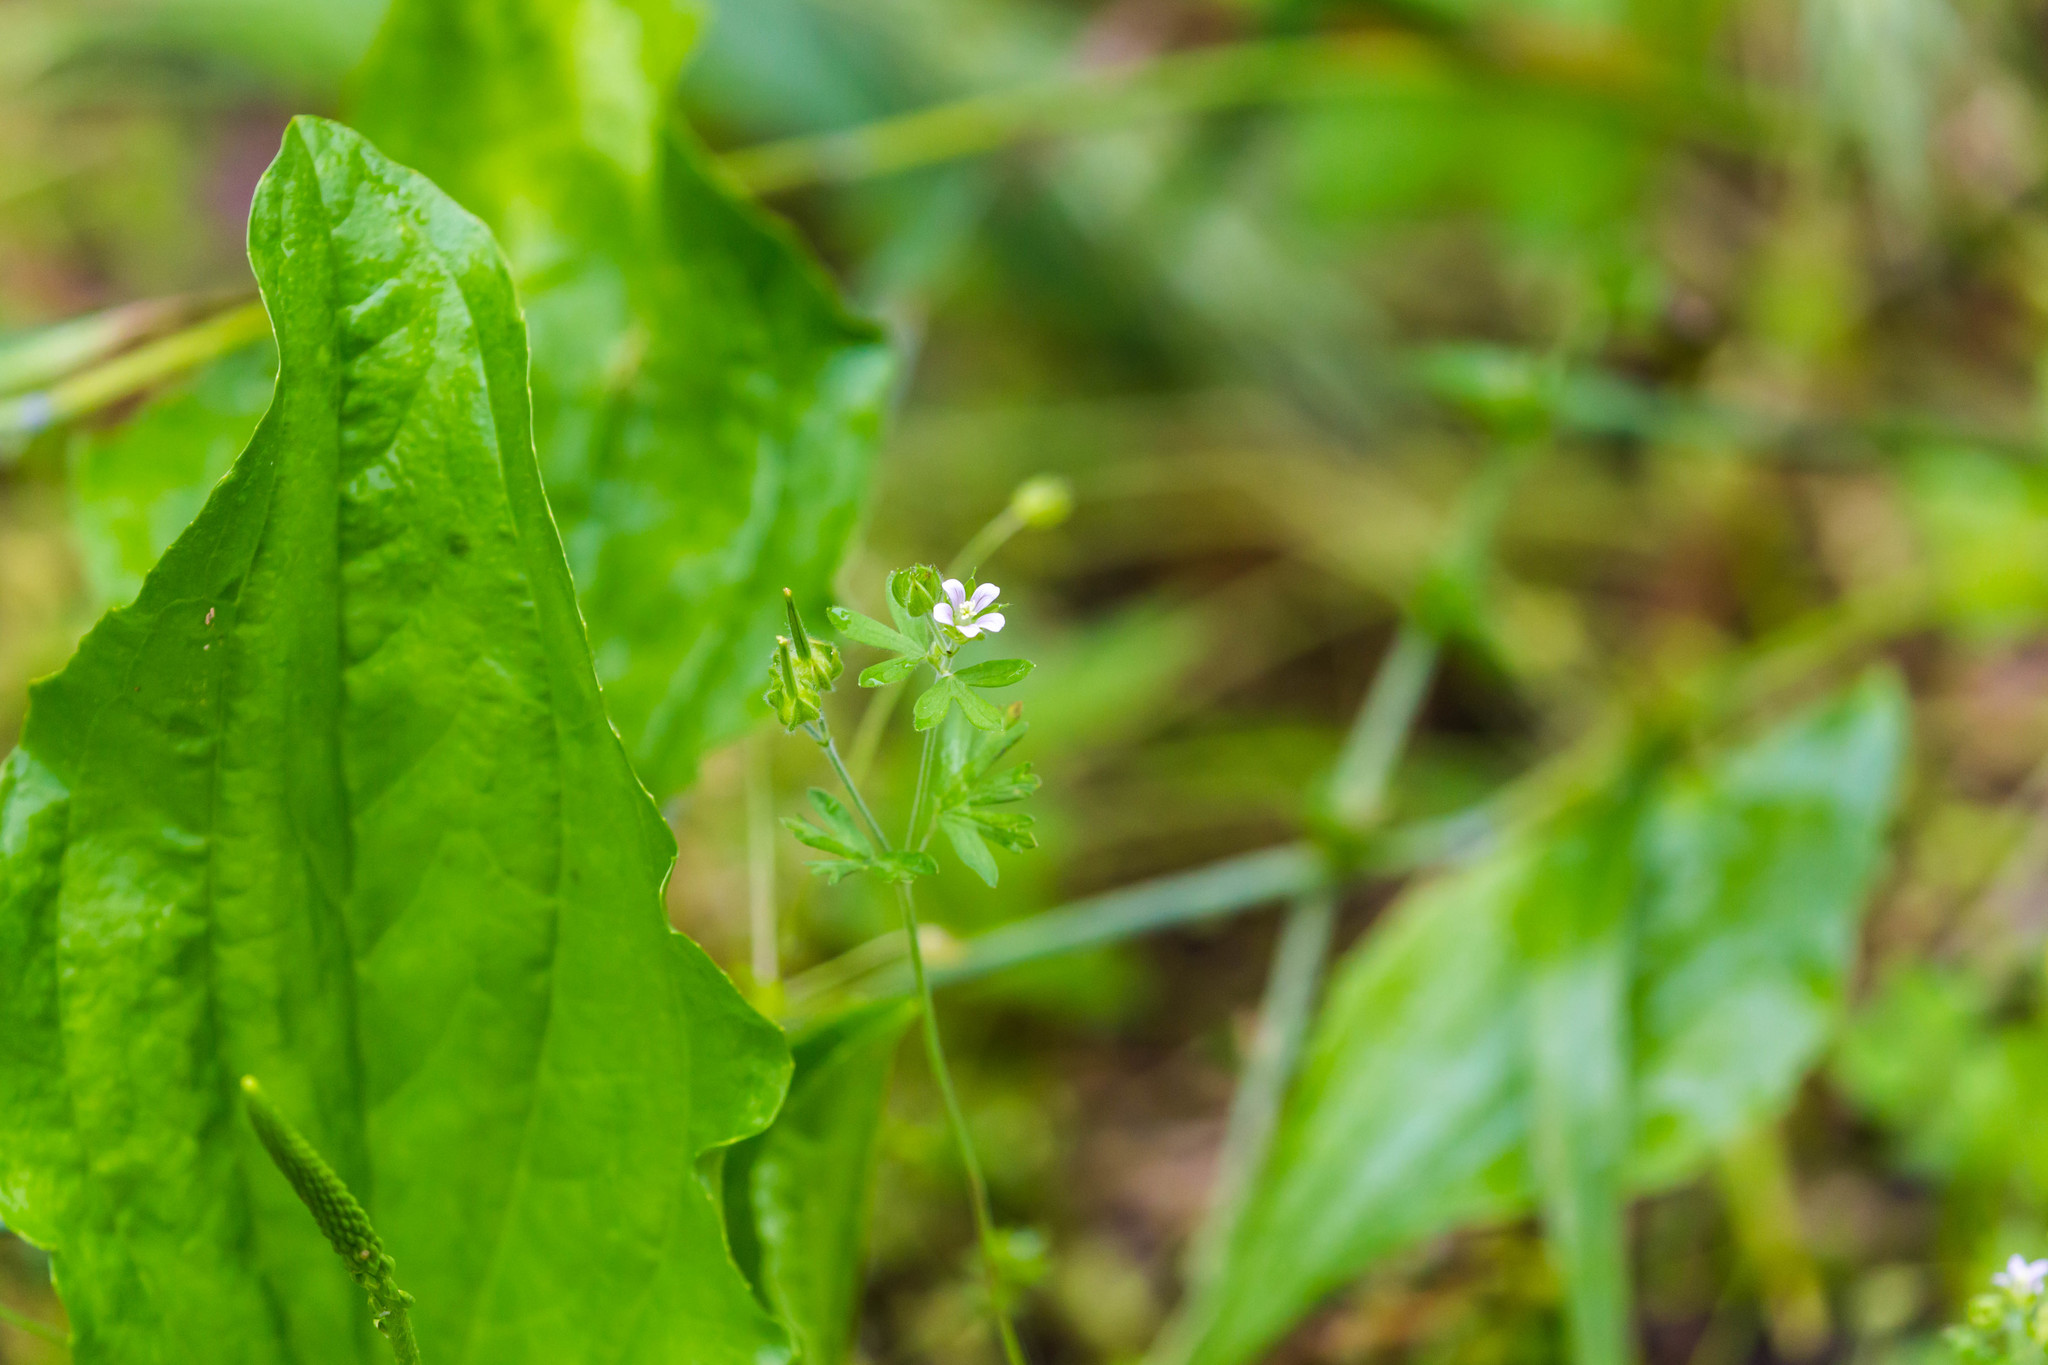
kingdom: Plantae
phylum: Tracheophyta
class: Magnoliopsida
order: Geraniales
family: Geraniaceae
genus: Geranium
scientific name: Geranium carolinianum
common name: Carolina crane's-bill
